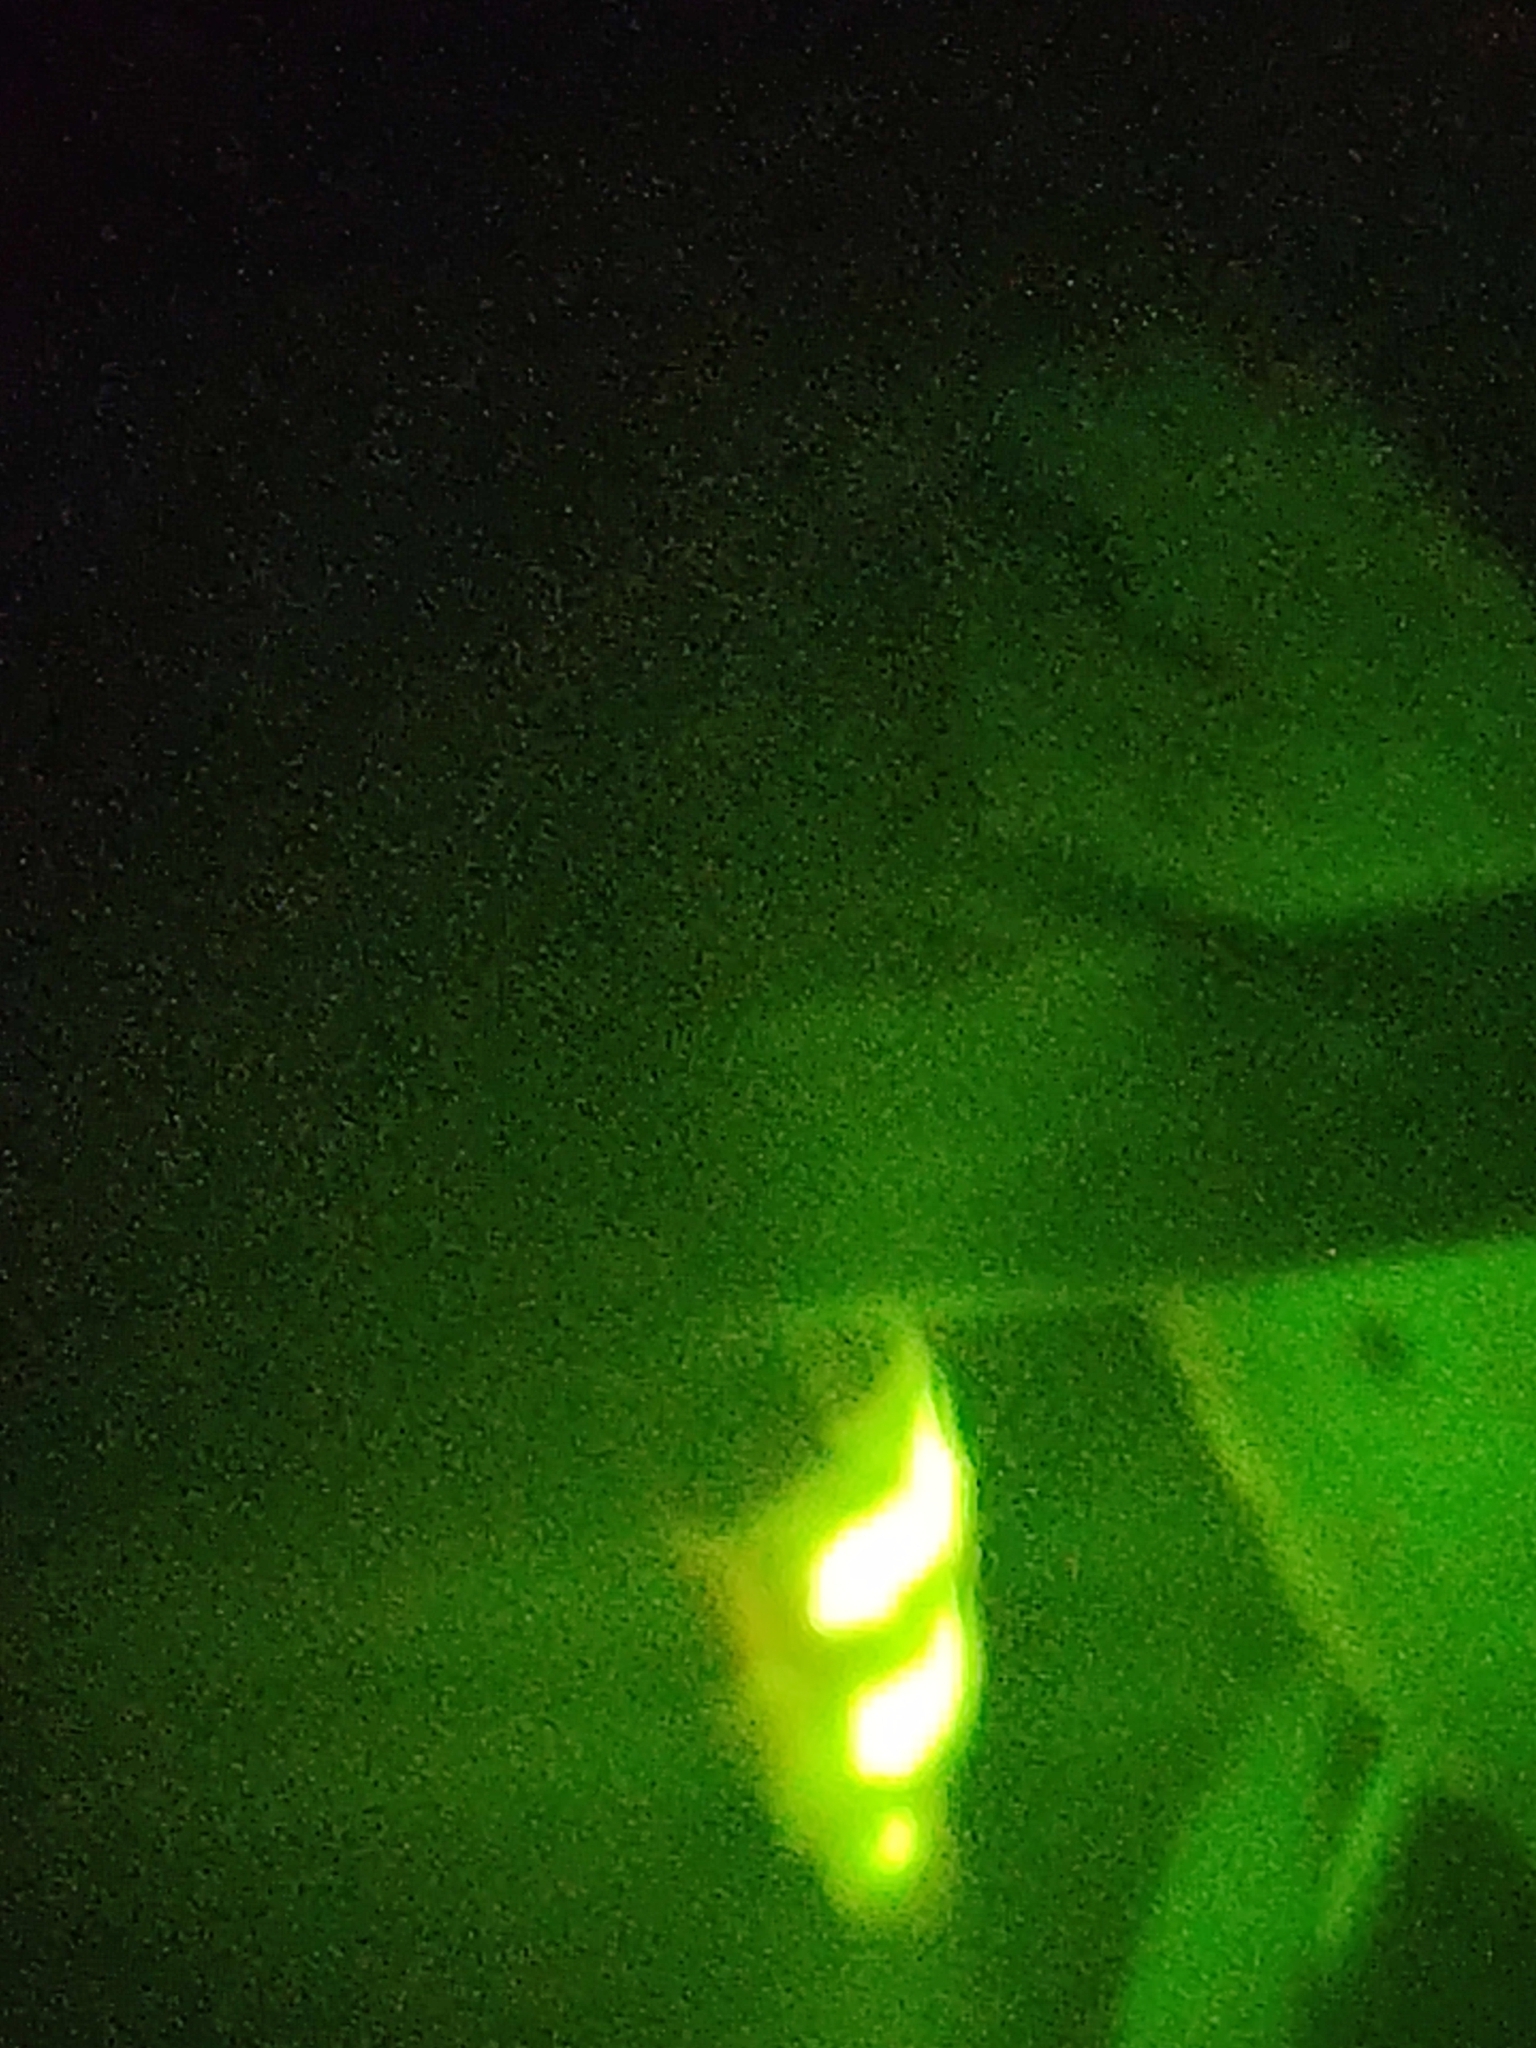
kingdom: Animalia
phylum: Arthropoda
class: Insecta
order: Coleoptera
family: Lampyridae
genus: Lampyris
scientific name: Lampyris noctiluca
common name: Glow-worm
